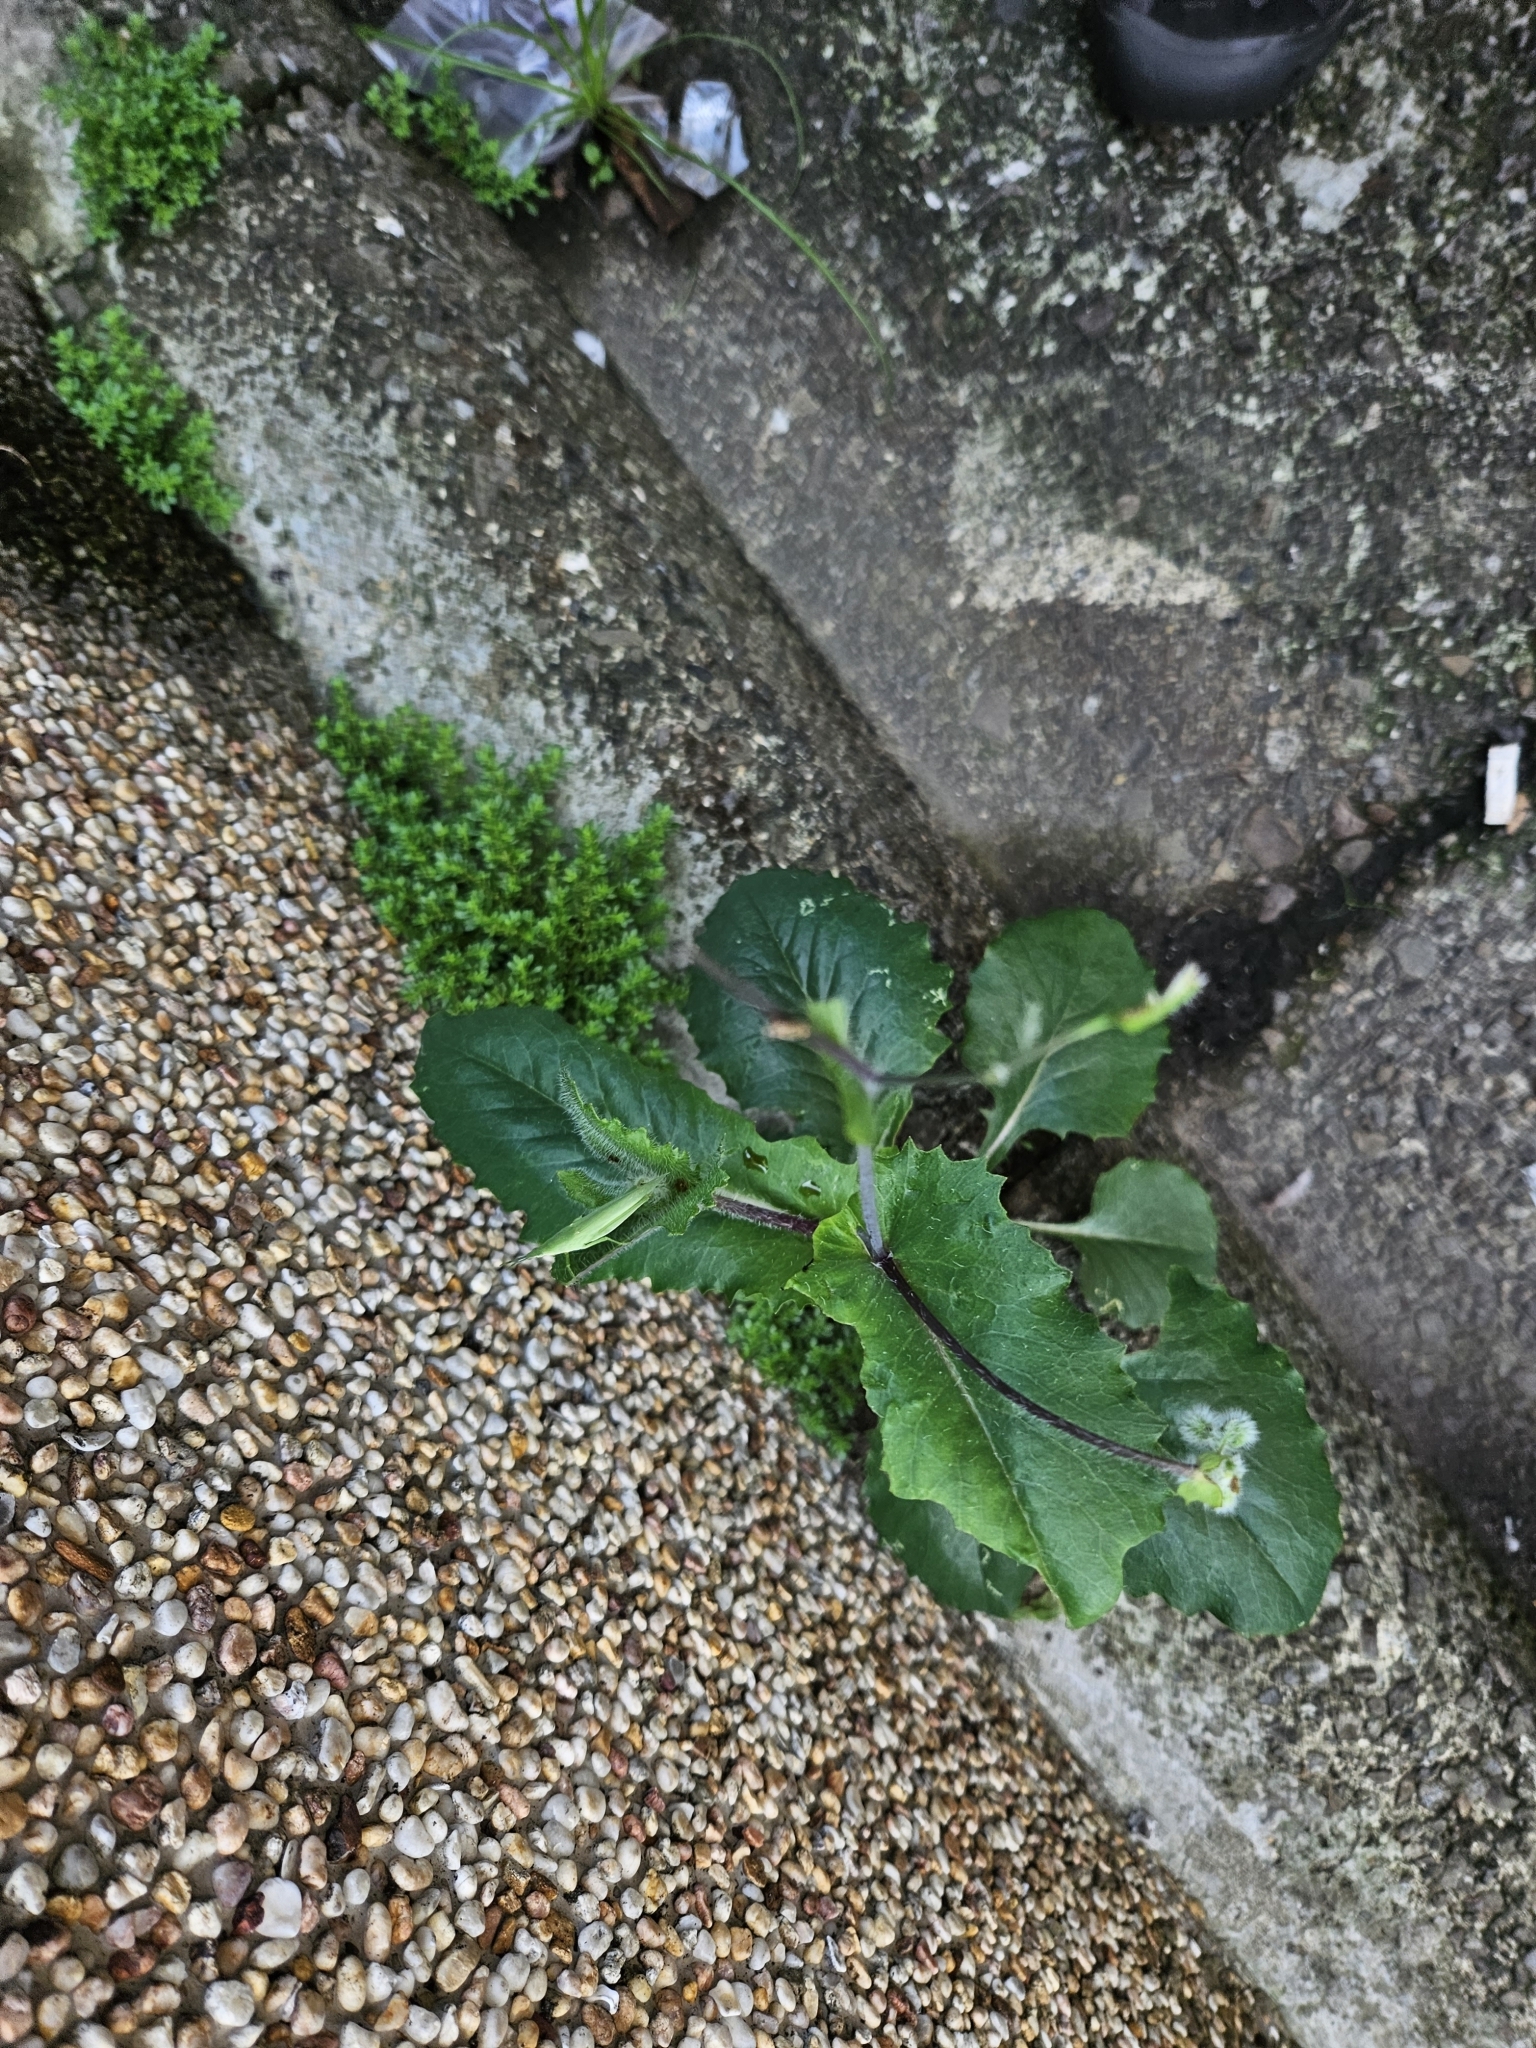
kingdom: Plantae
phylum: Tracheophyta
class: Magnoliopsida
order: Asterales
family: Asteraceae
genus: Emilia
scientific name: Emilia praetermissa
